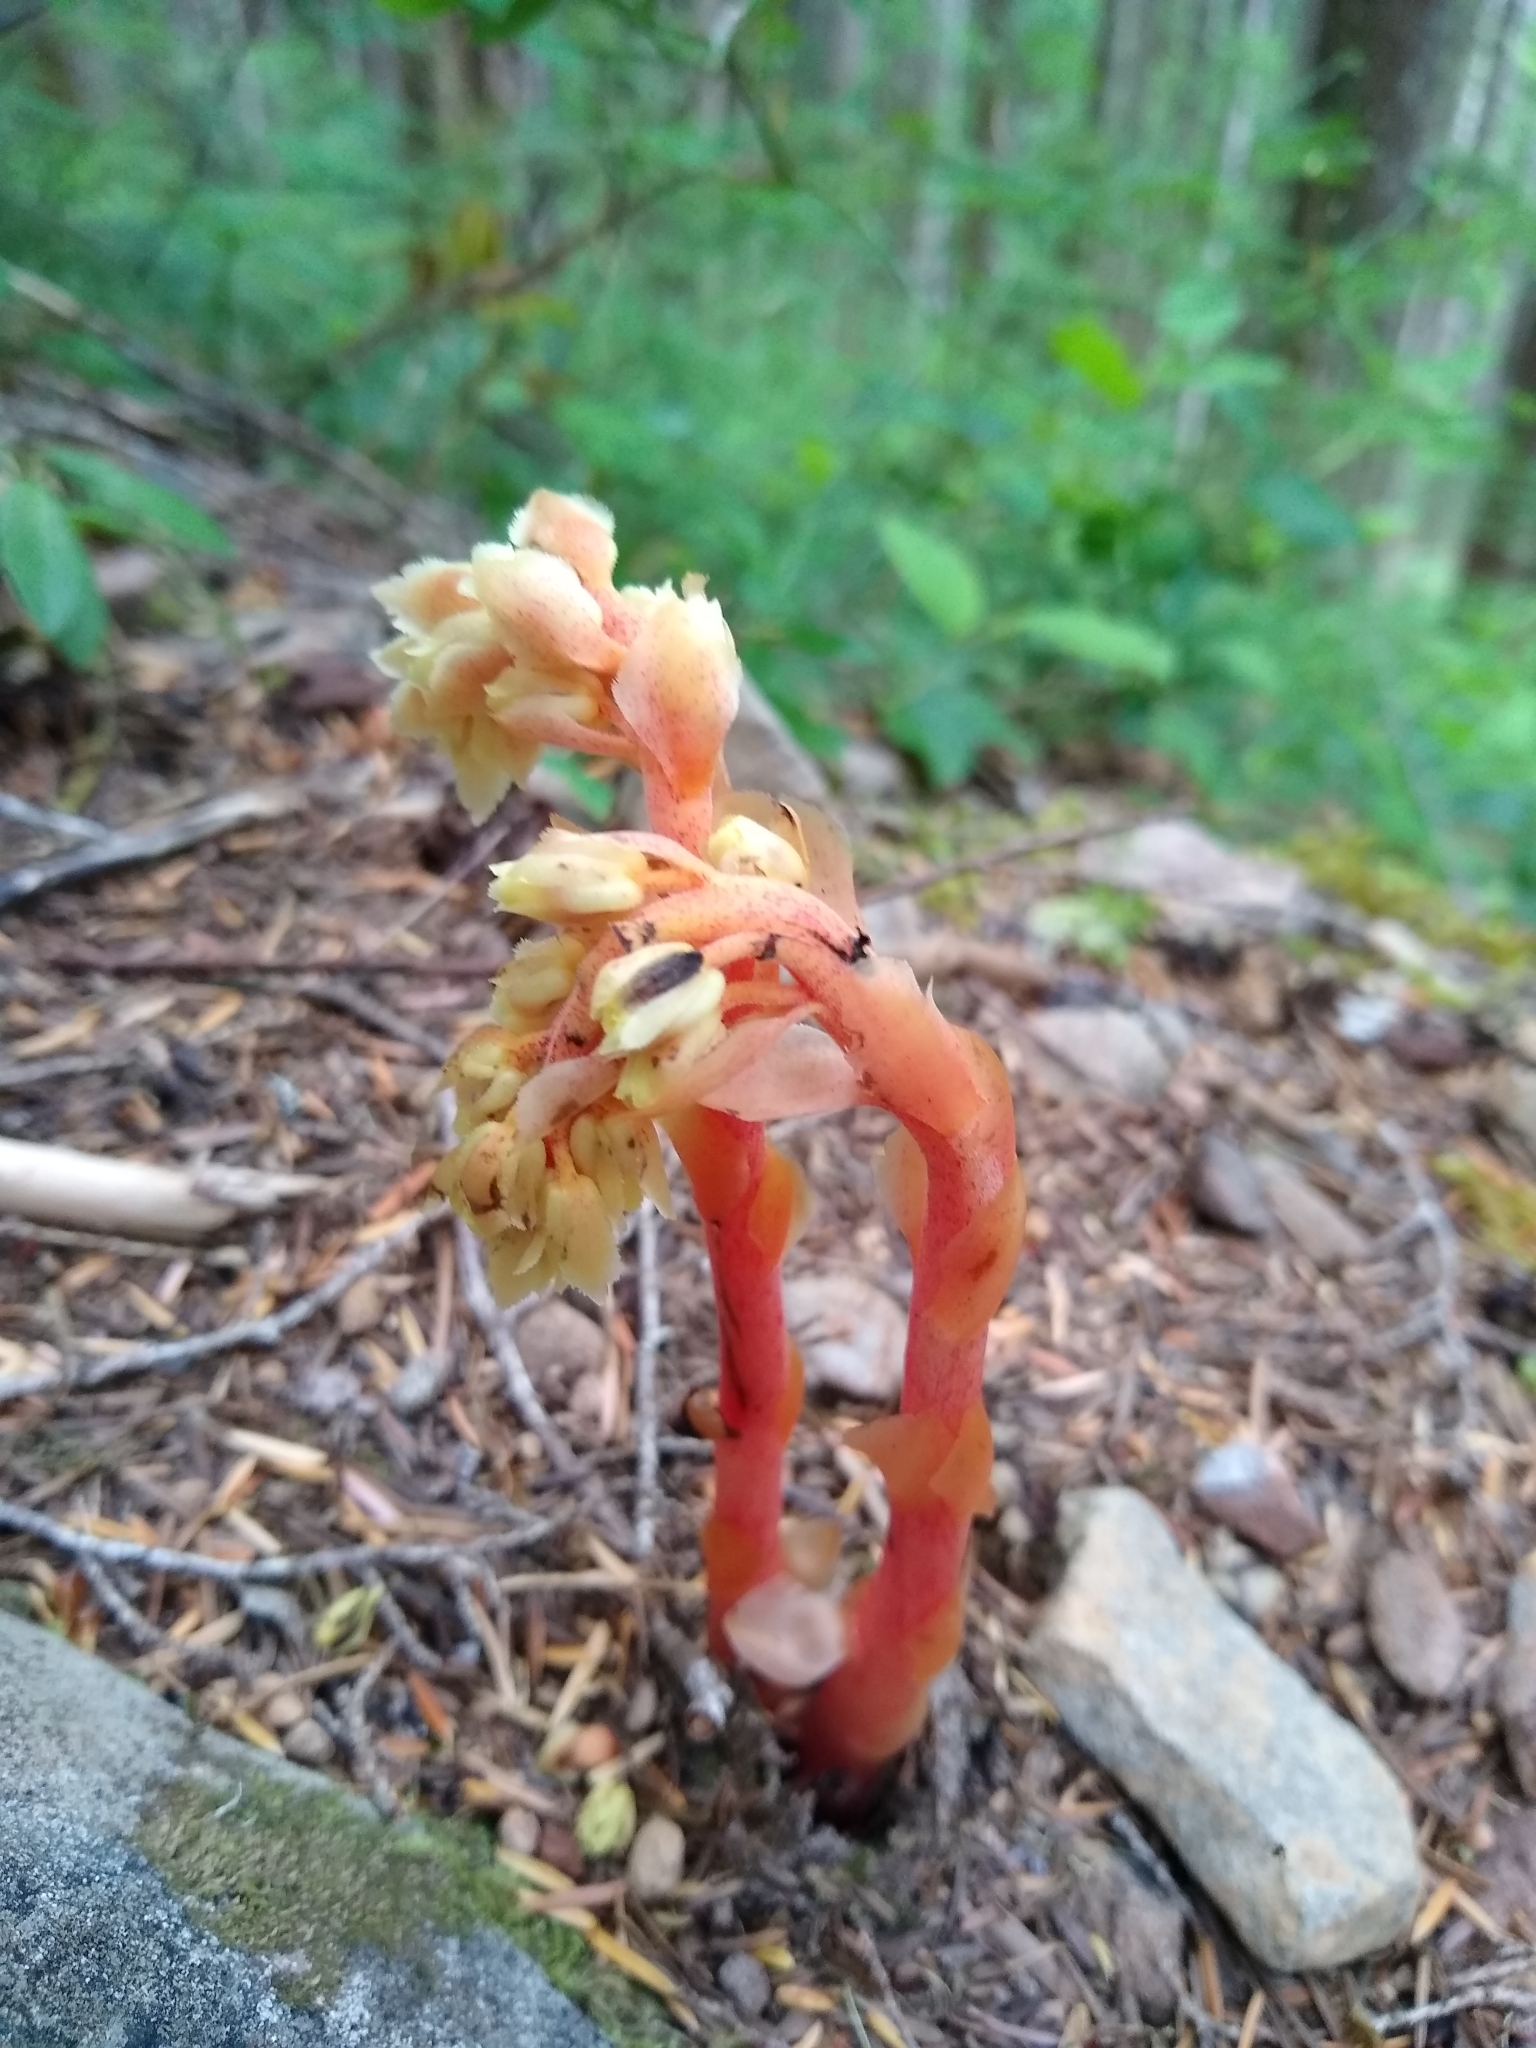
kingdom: Plantae
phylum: Tracheophyta
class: Magnoliopsida
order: Ericales
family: Ericaceae
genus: Hypopitys
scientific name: Hypopitys monotropa
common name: Yellow bird's-nest
